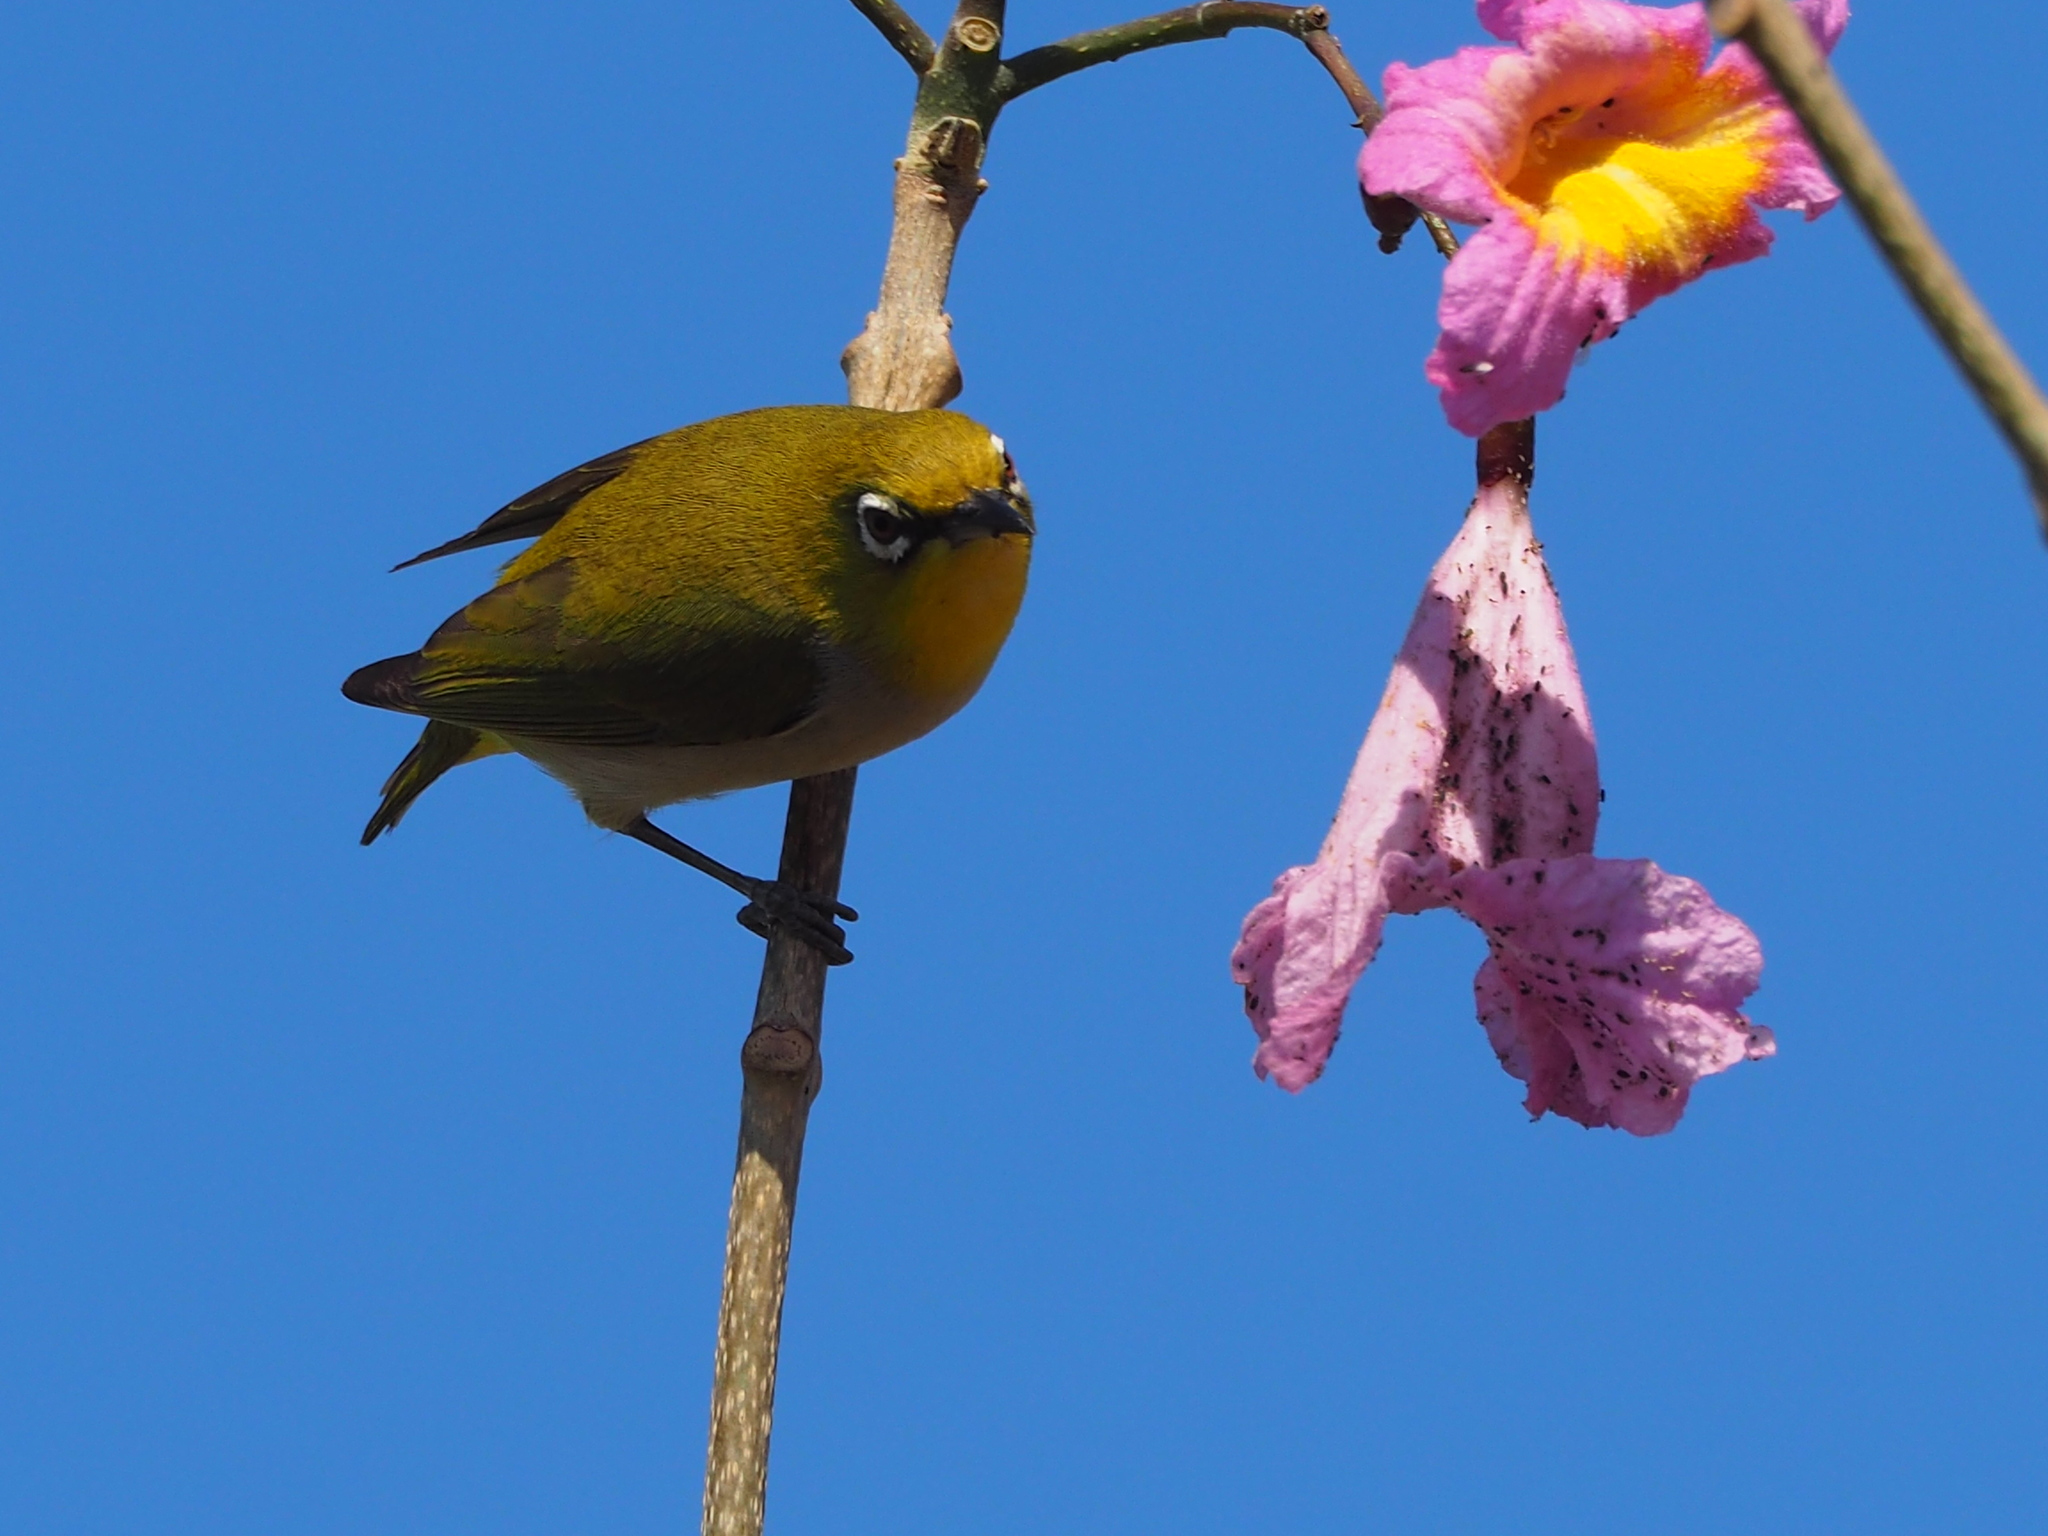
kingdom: Animalia
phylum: Chordata
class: Aves
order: Passeriformes
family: Zosteropidae
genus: Zosterops
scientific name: Zosterops simplex
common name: Swinhoe's white-eye
